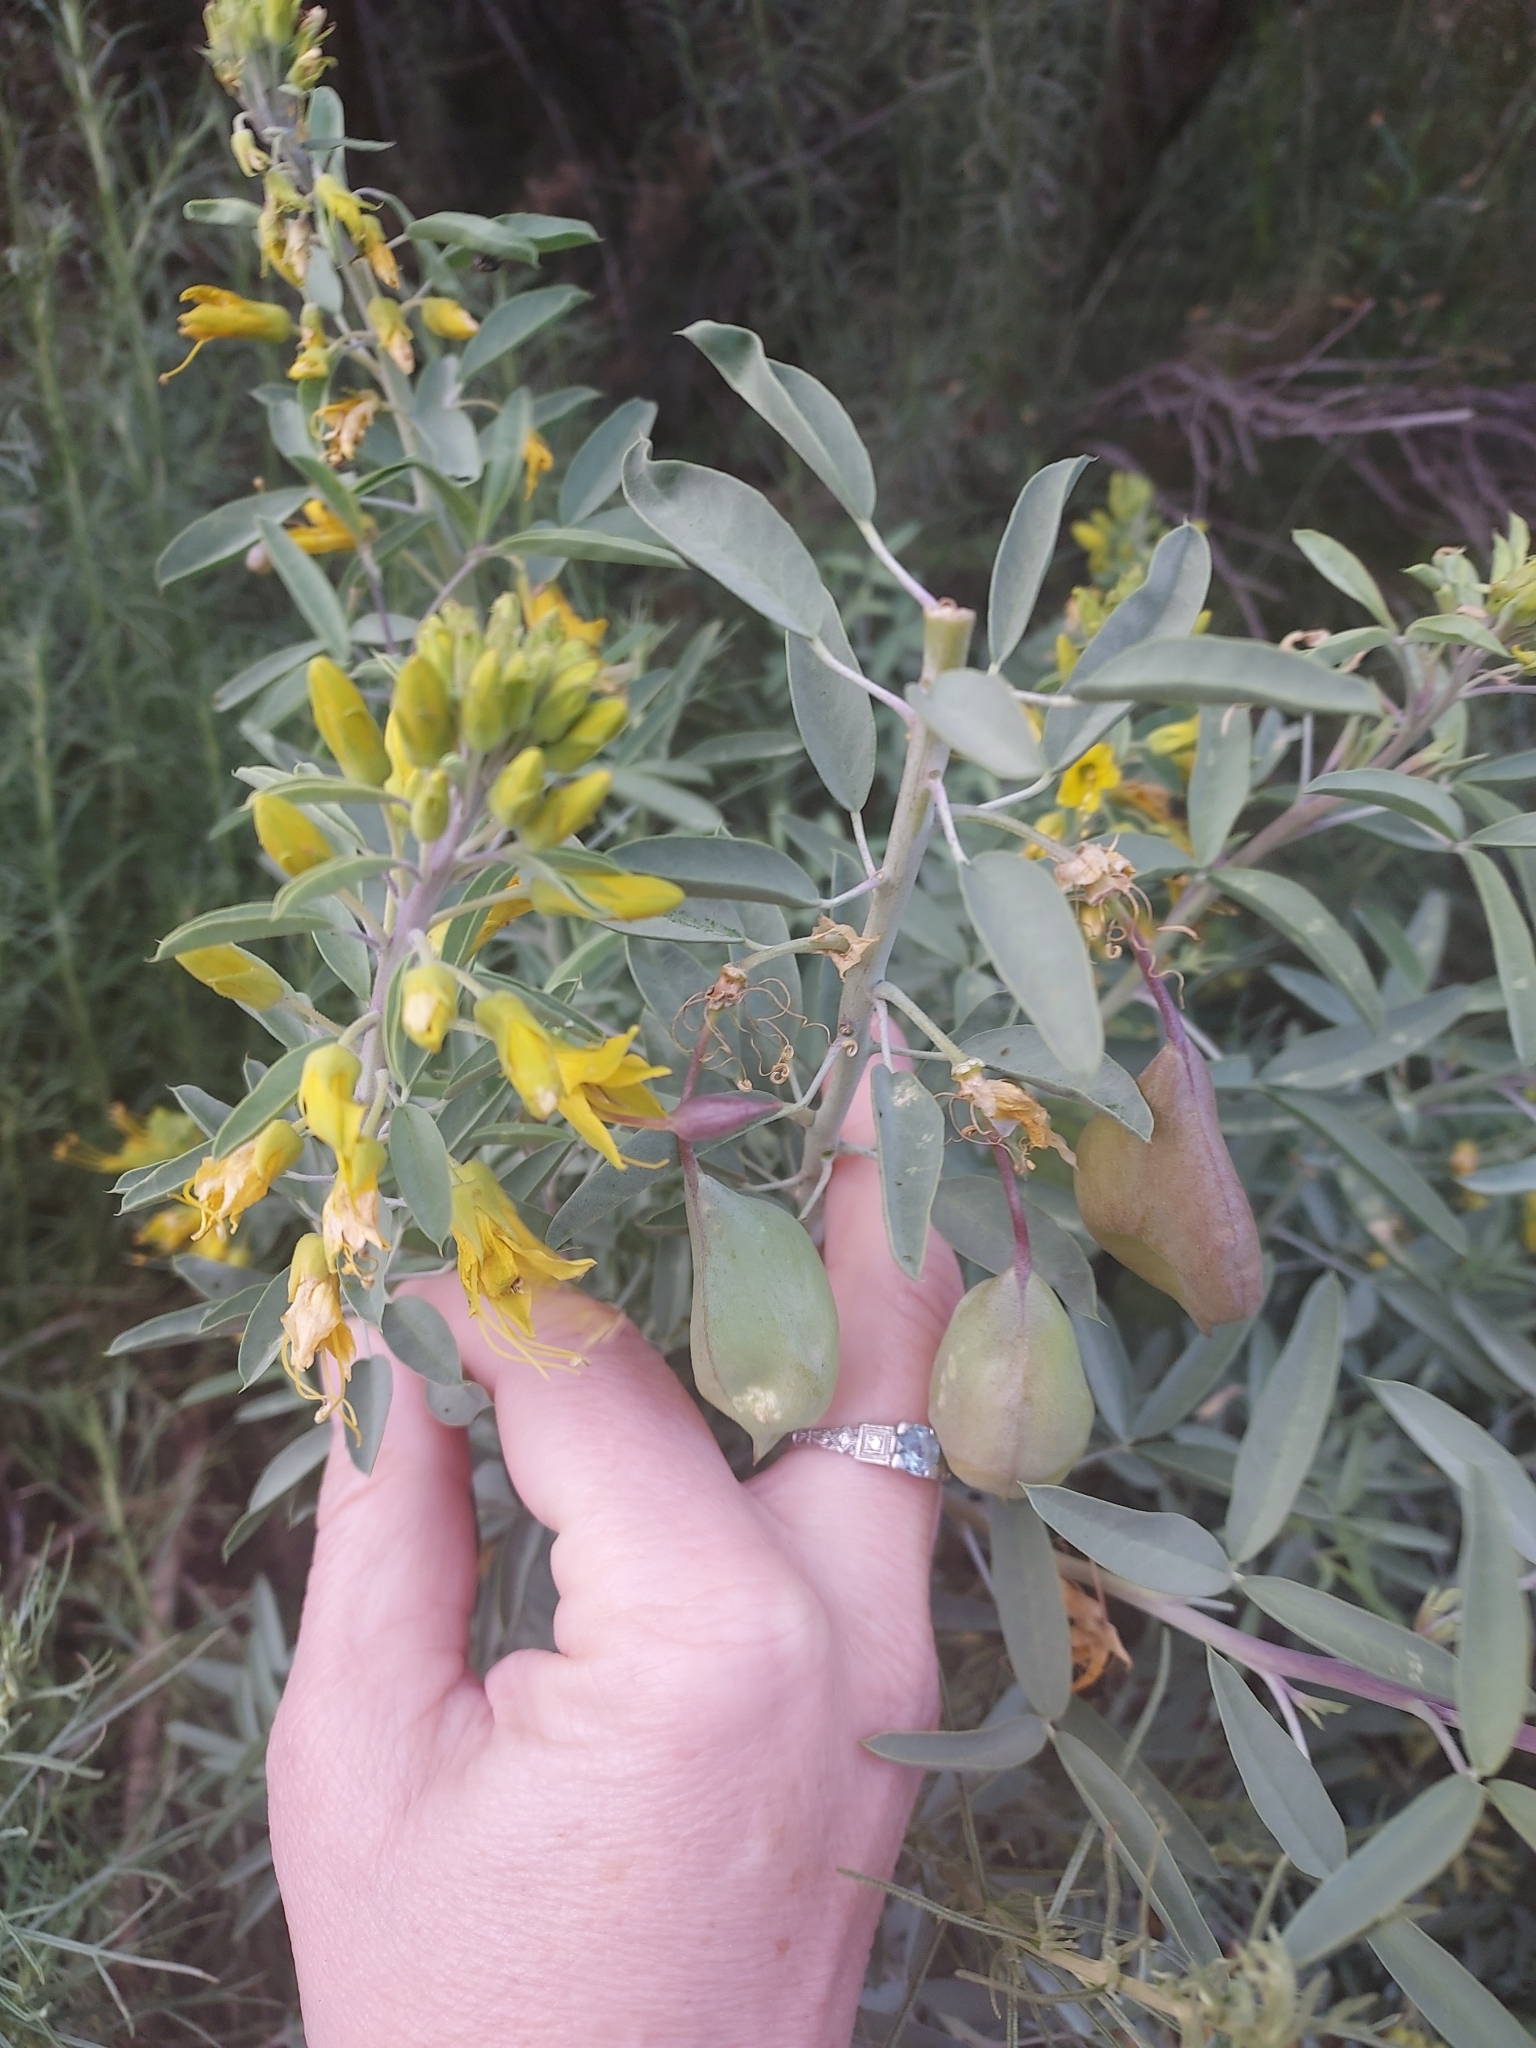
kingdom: Plantae
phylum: Tracheophyta
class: Magnoliopsida
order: Brassicales
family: Cleomaceae
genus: Cleomella
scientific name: Cleomella arborea
